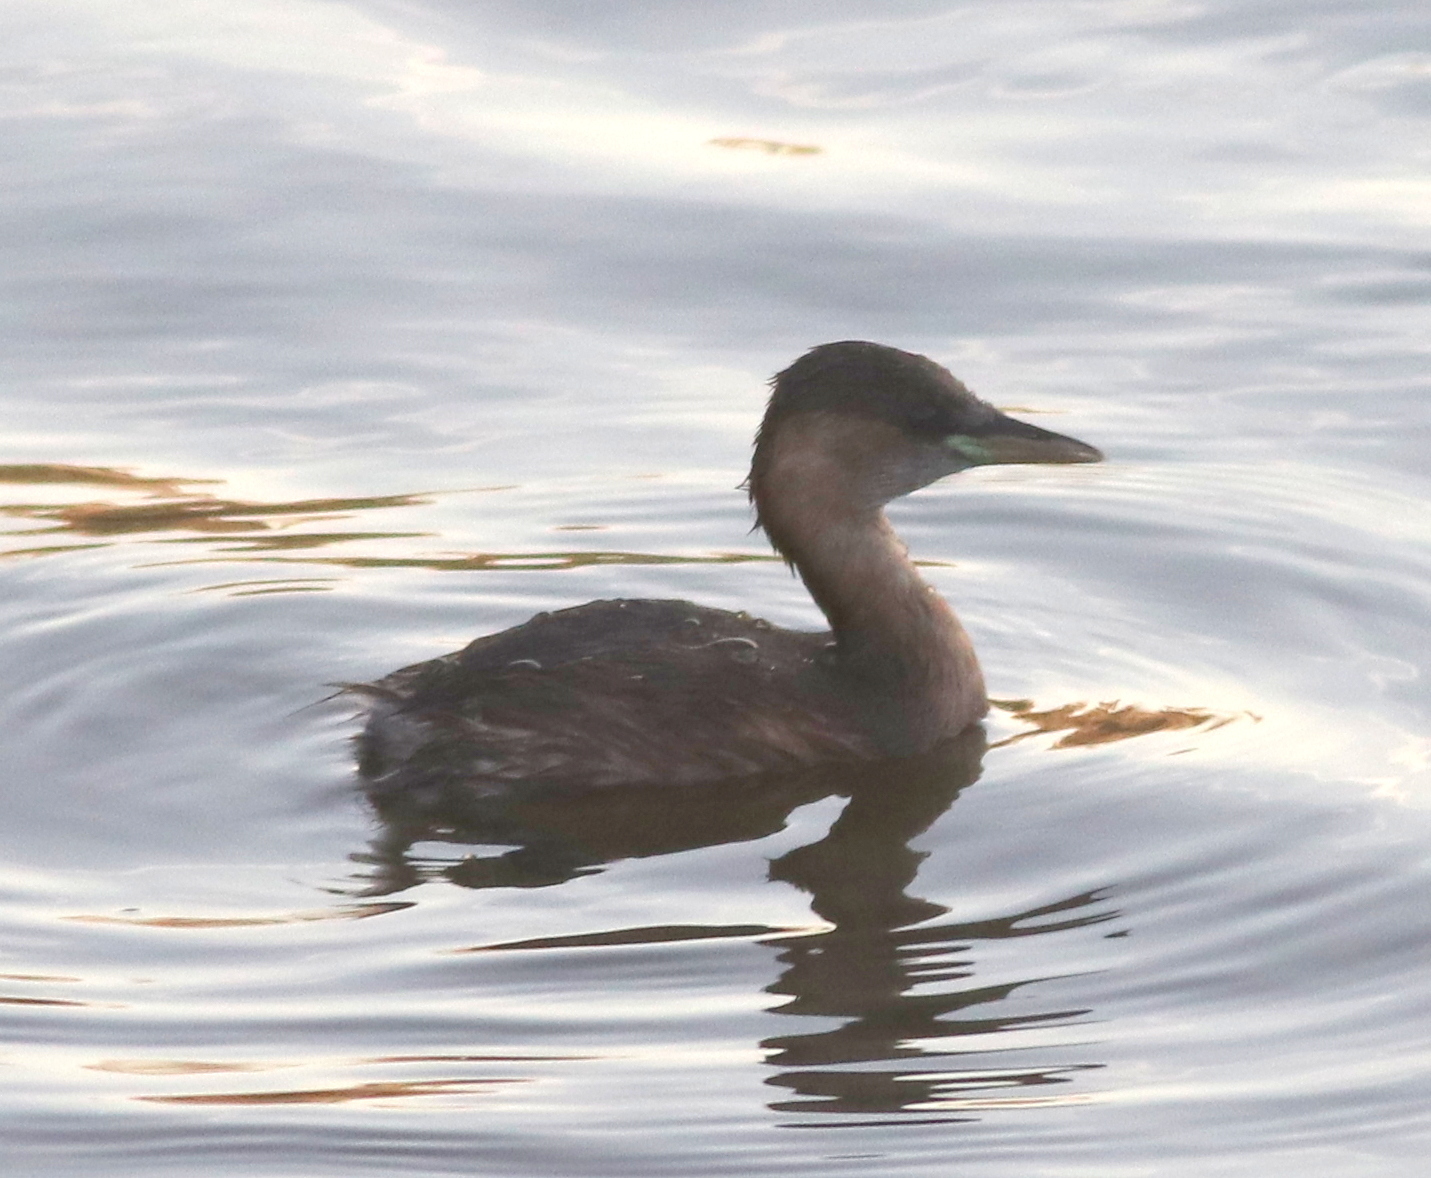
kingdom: Animalia
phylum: Chordata
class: Aves
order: Podicipediformes
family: Podicipedidae
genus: Tachybaptus
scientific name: Tachybaptus ruficollis
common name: Little grebe
